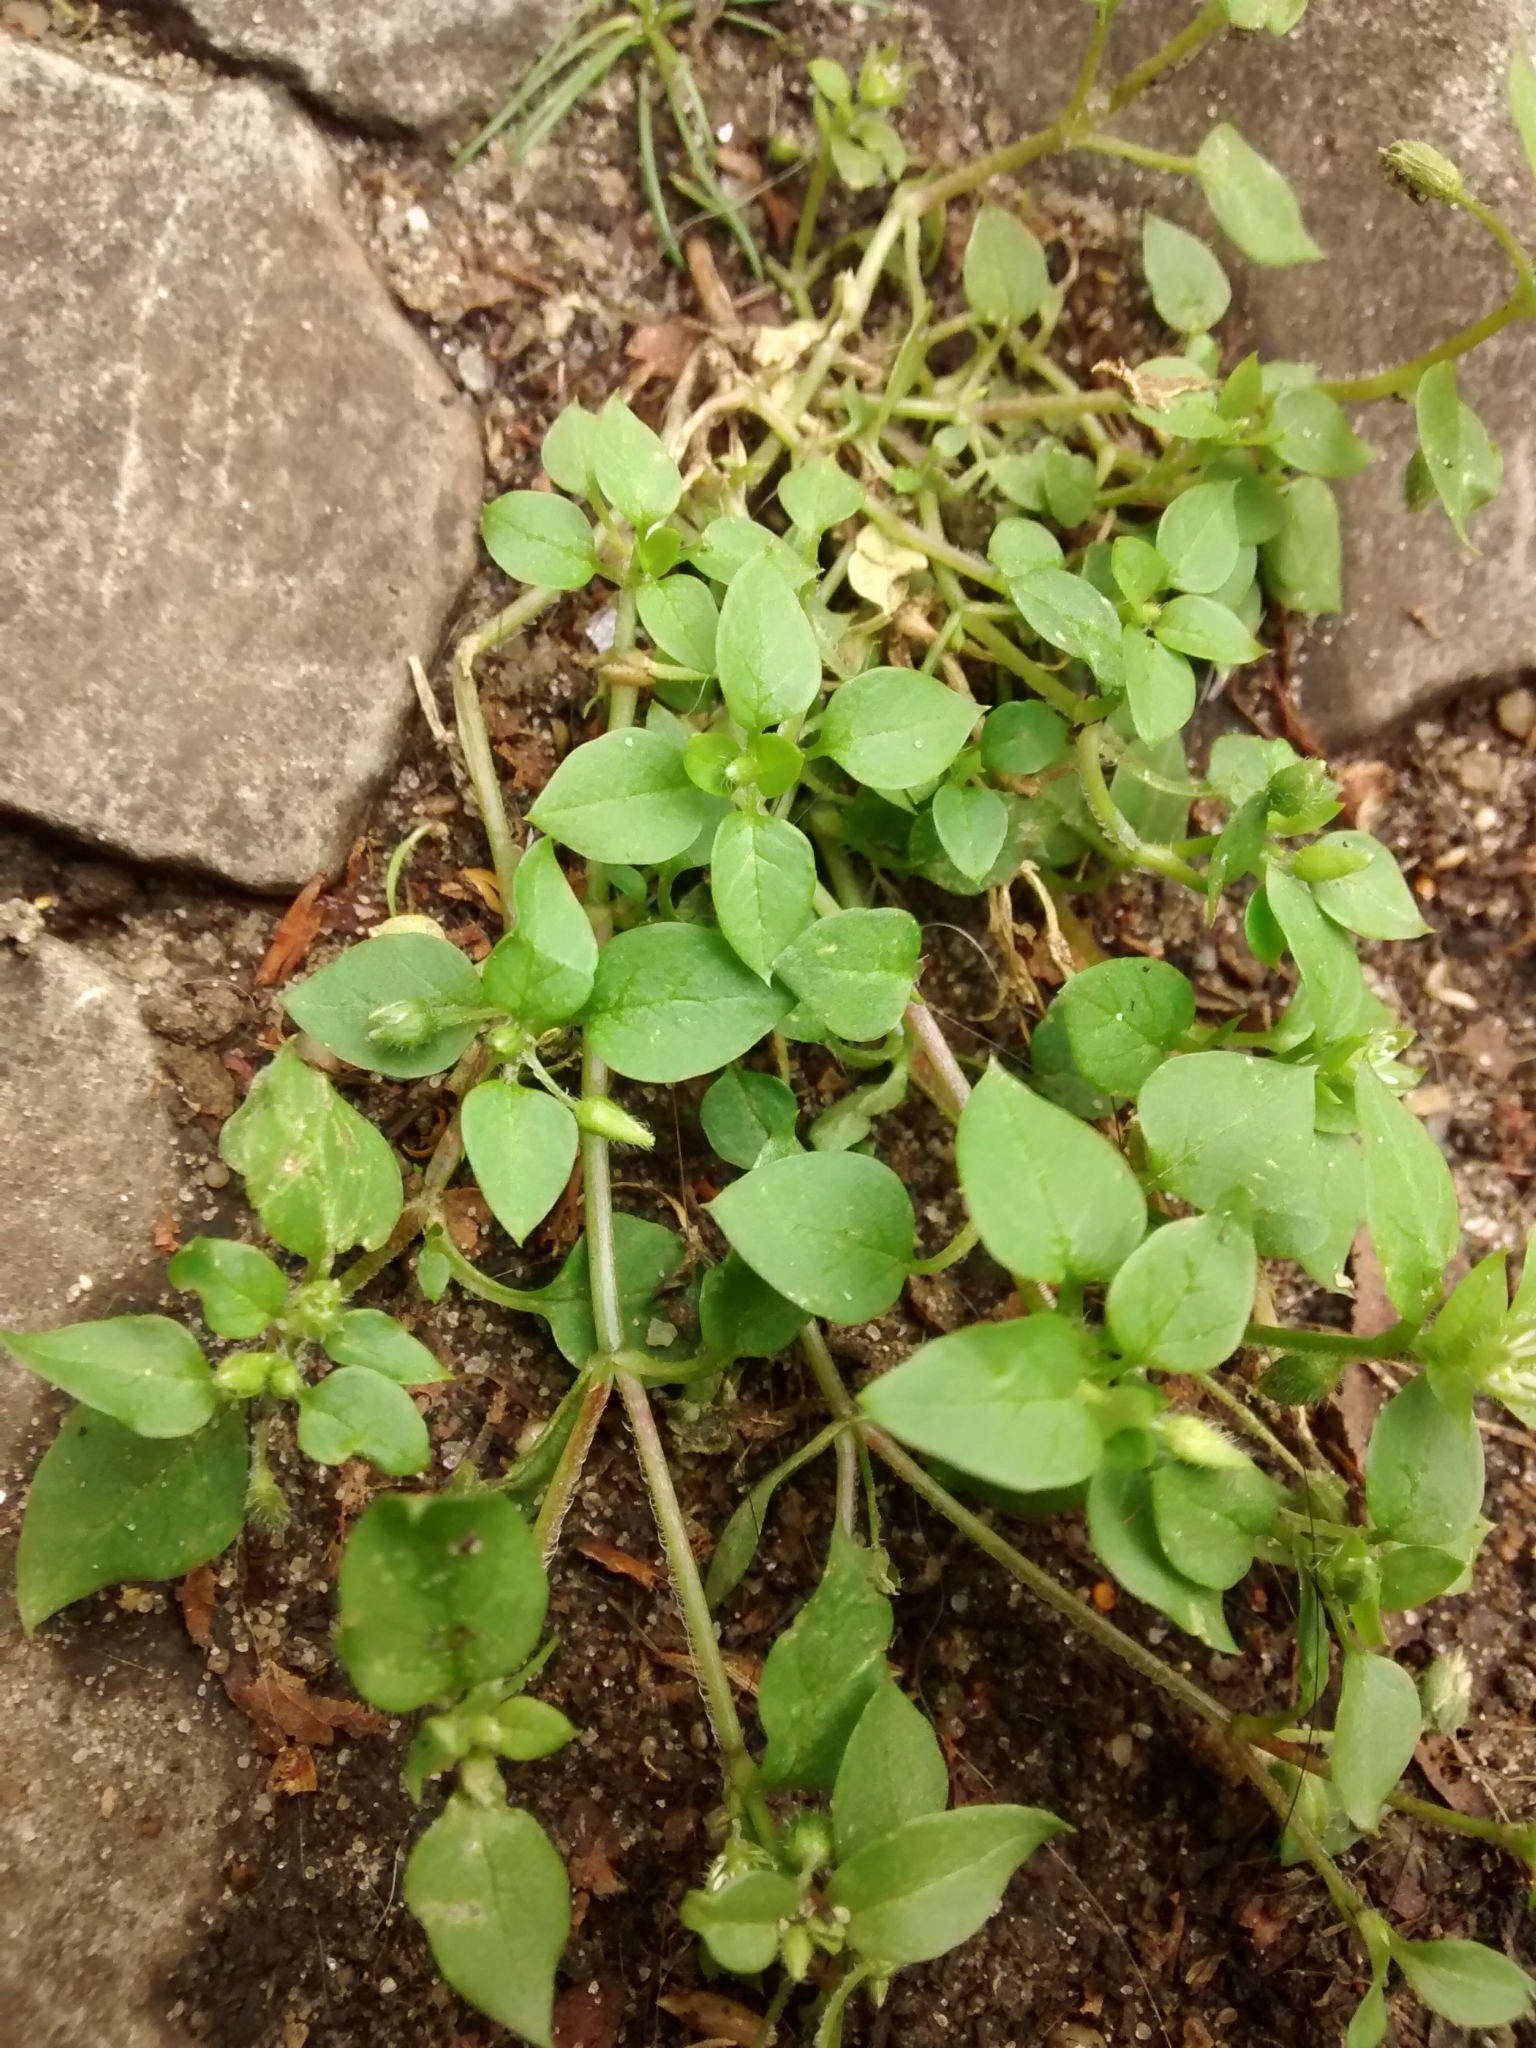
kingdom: Plantae
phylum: Tracheophyta
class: Magnoliopsida
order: Caryophyllales
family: Caryophyllaceae
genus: Stellaria
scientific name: Stellaria media
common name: Common chickweed
